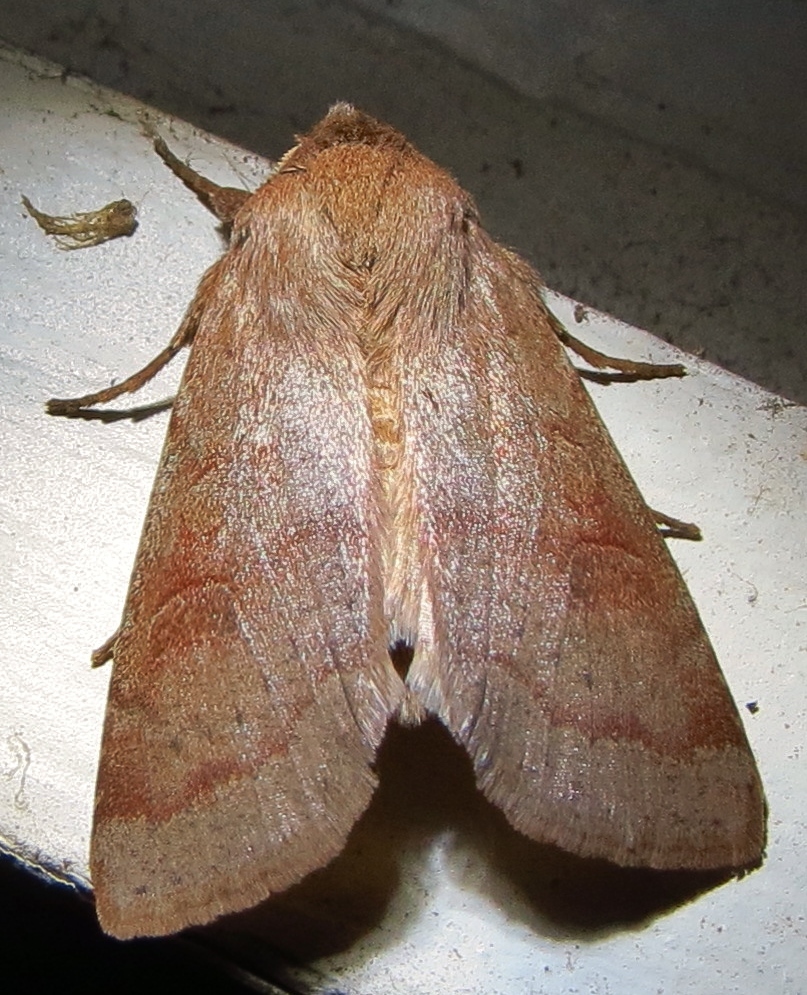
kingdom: Animalia
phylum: Arthropoda
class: Insecta
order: Lepidoptera
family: Noctuidae
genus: Orthosia
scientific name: Orthosia alurina
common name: Gray quaker
